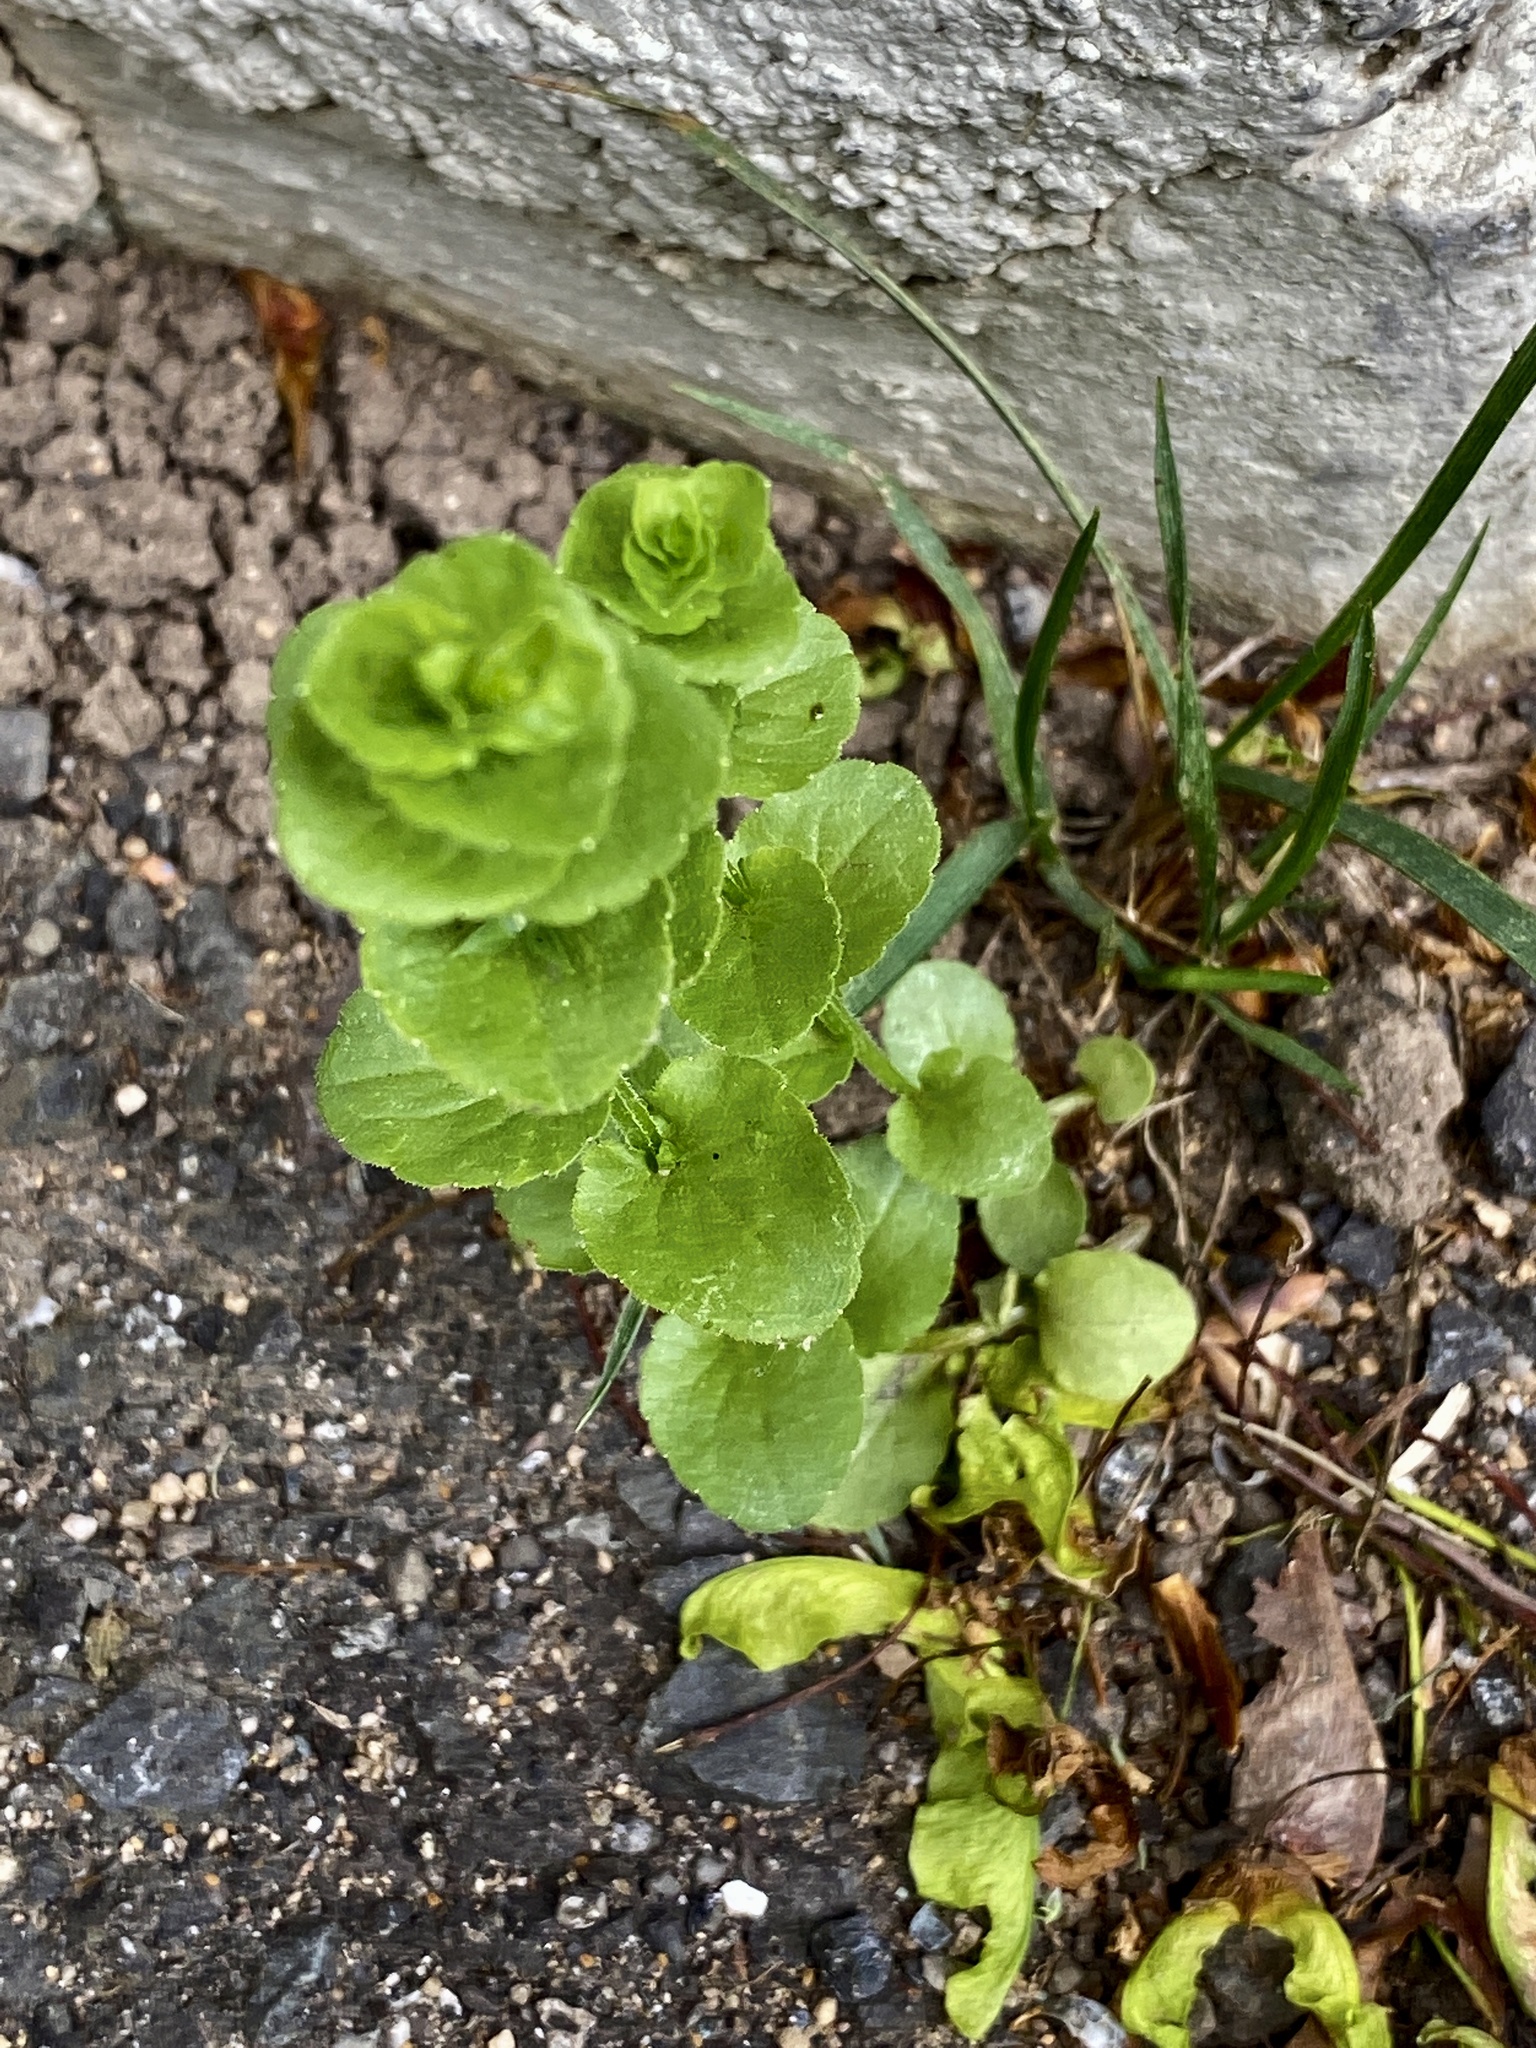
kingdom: Plantae
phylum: Tracheophyta
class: Magnoliopsida
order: Asterales
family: Campanulaceae
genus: Triodanis
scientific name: Triodanis perfoliata
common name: Clasping venus' looking-glass
